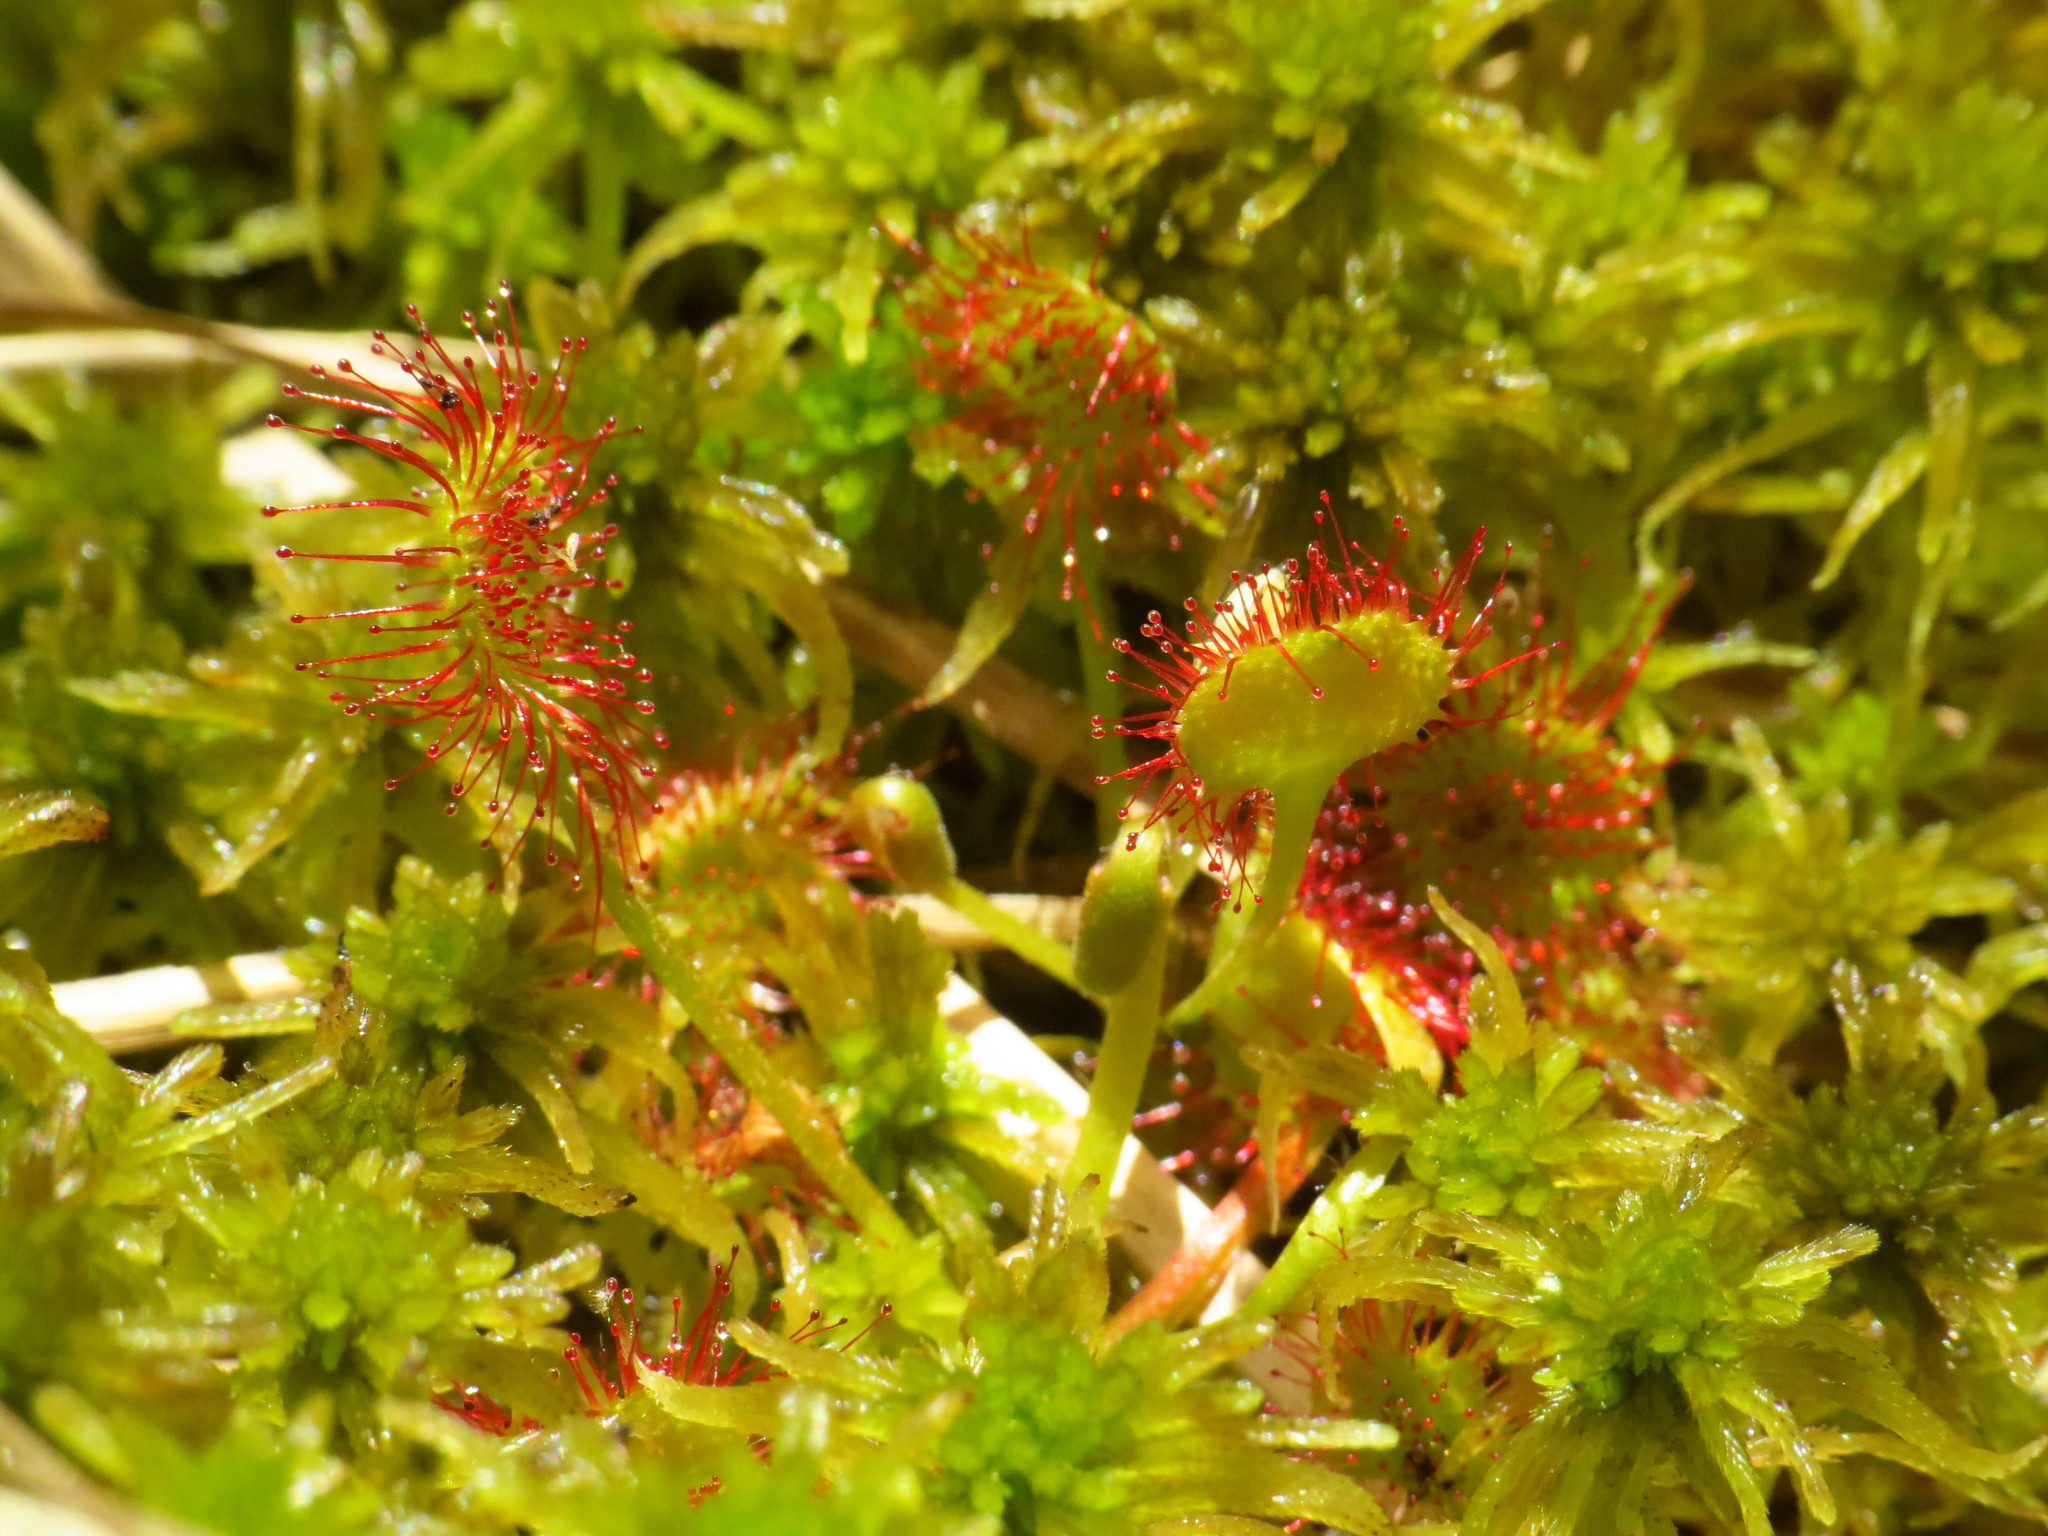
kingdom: Plantae
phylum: Tracheophyta
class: Magnoliopsida
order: Caryophyllales
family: Droseraceae
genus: Drosera
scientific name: Drosera rotundifolia
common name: Round-leaved sundew
